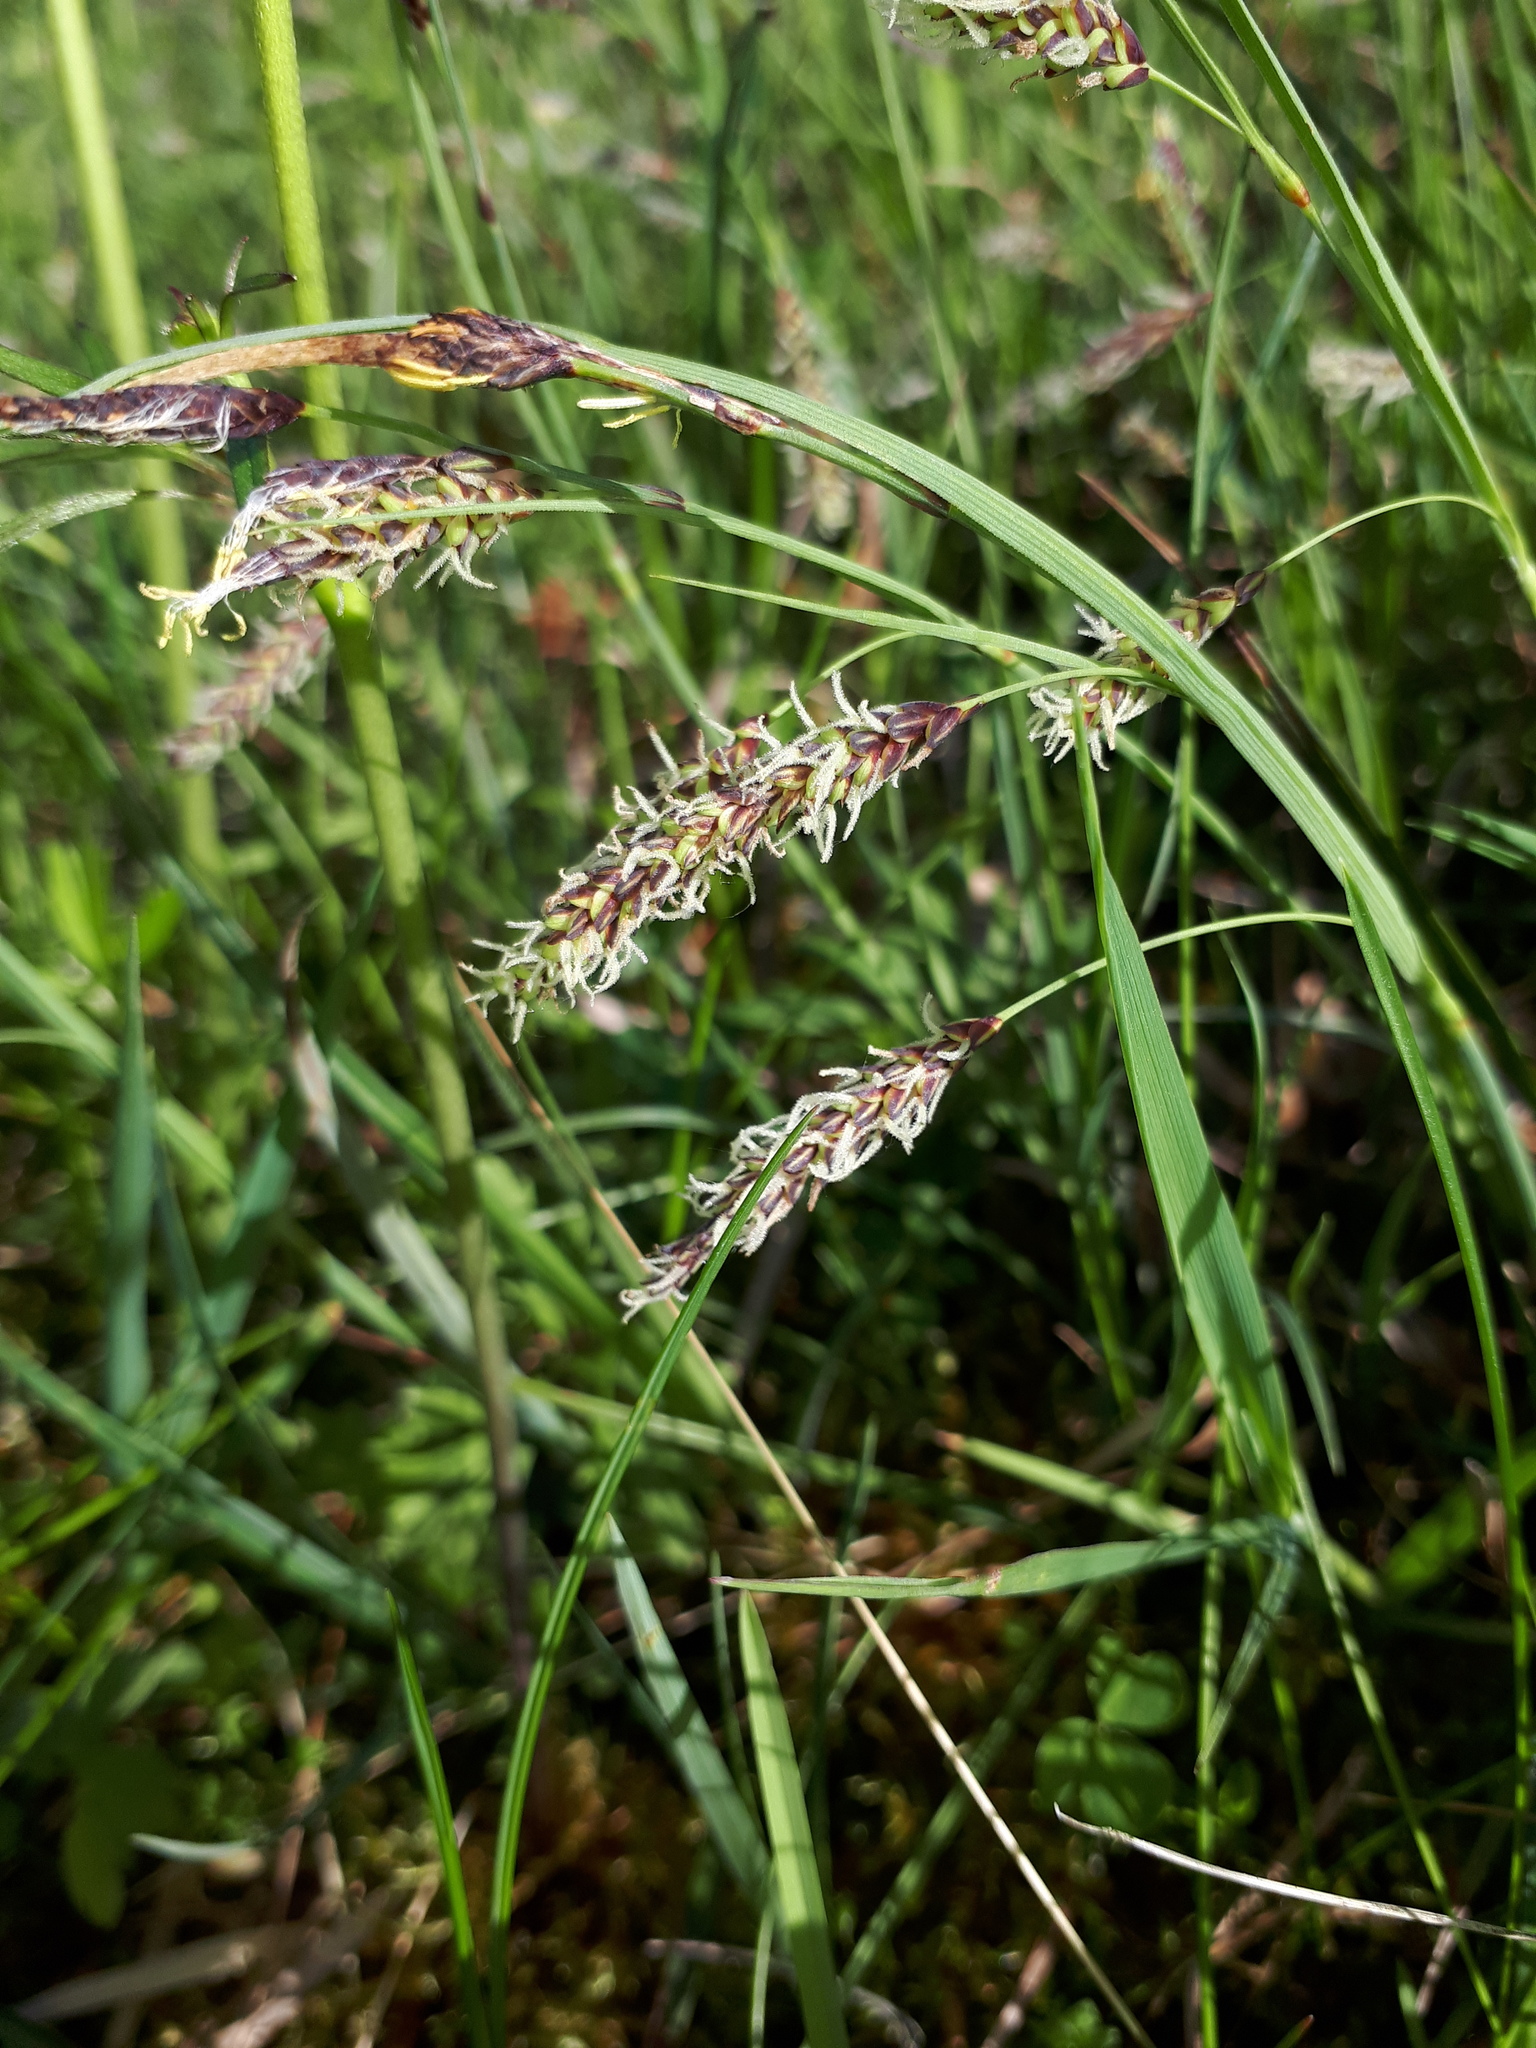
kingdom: Plantae
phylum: Tracheophyta
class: Liliopsida
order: Poales
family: Cyperaceae
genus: Carex
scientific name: Carex flacca
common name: Glaucous sedge
